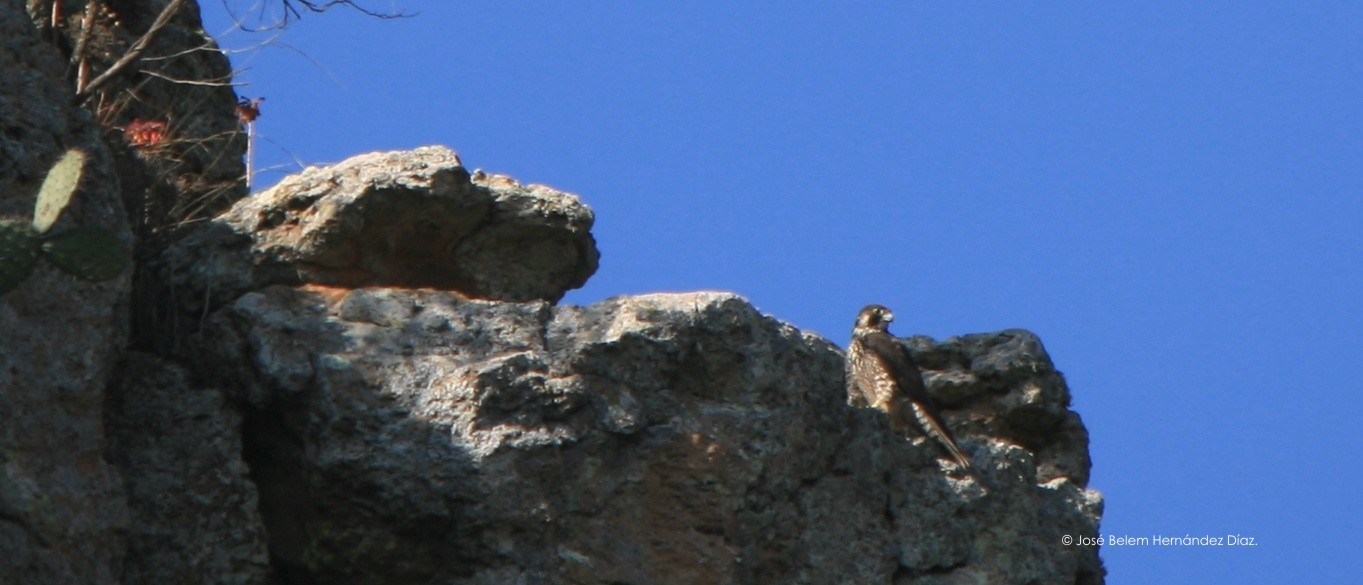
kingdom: Animalia
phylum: Chordata
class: Aves
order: Falconiformes
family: Falconidae
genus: Falco
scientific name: Falco peregrinus
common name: Peregrine falcon
